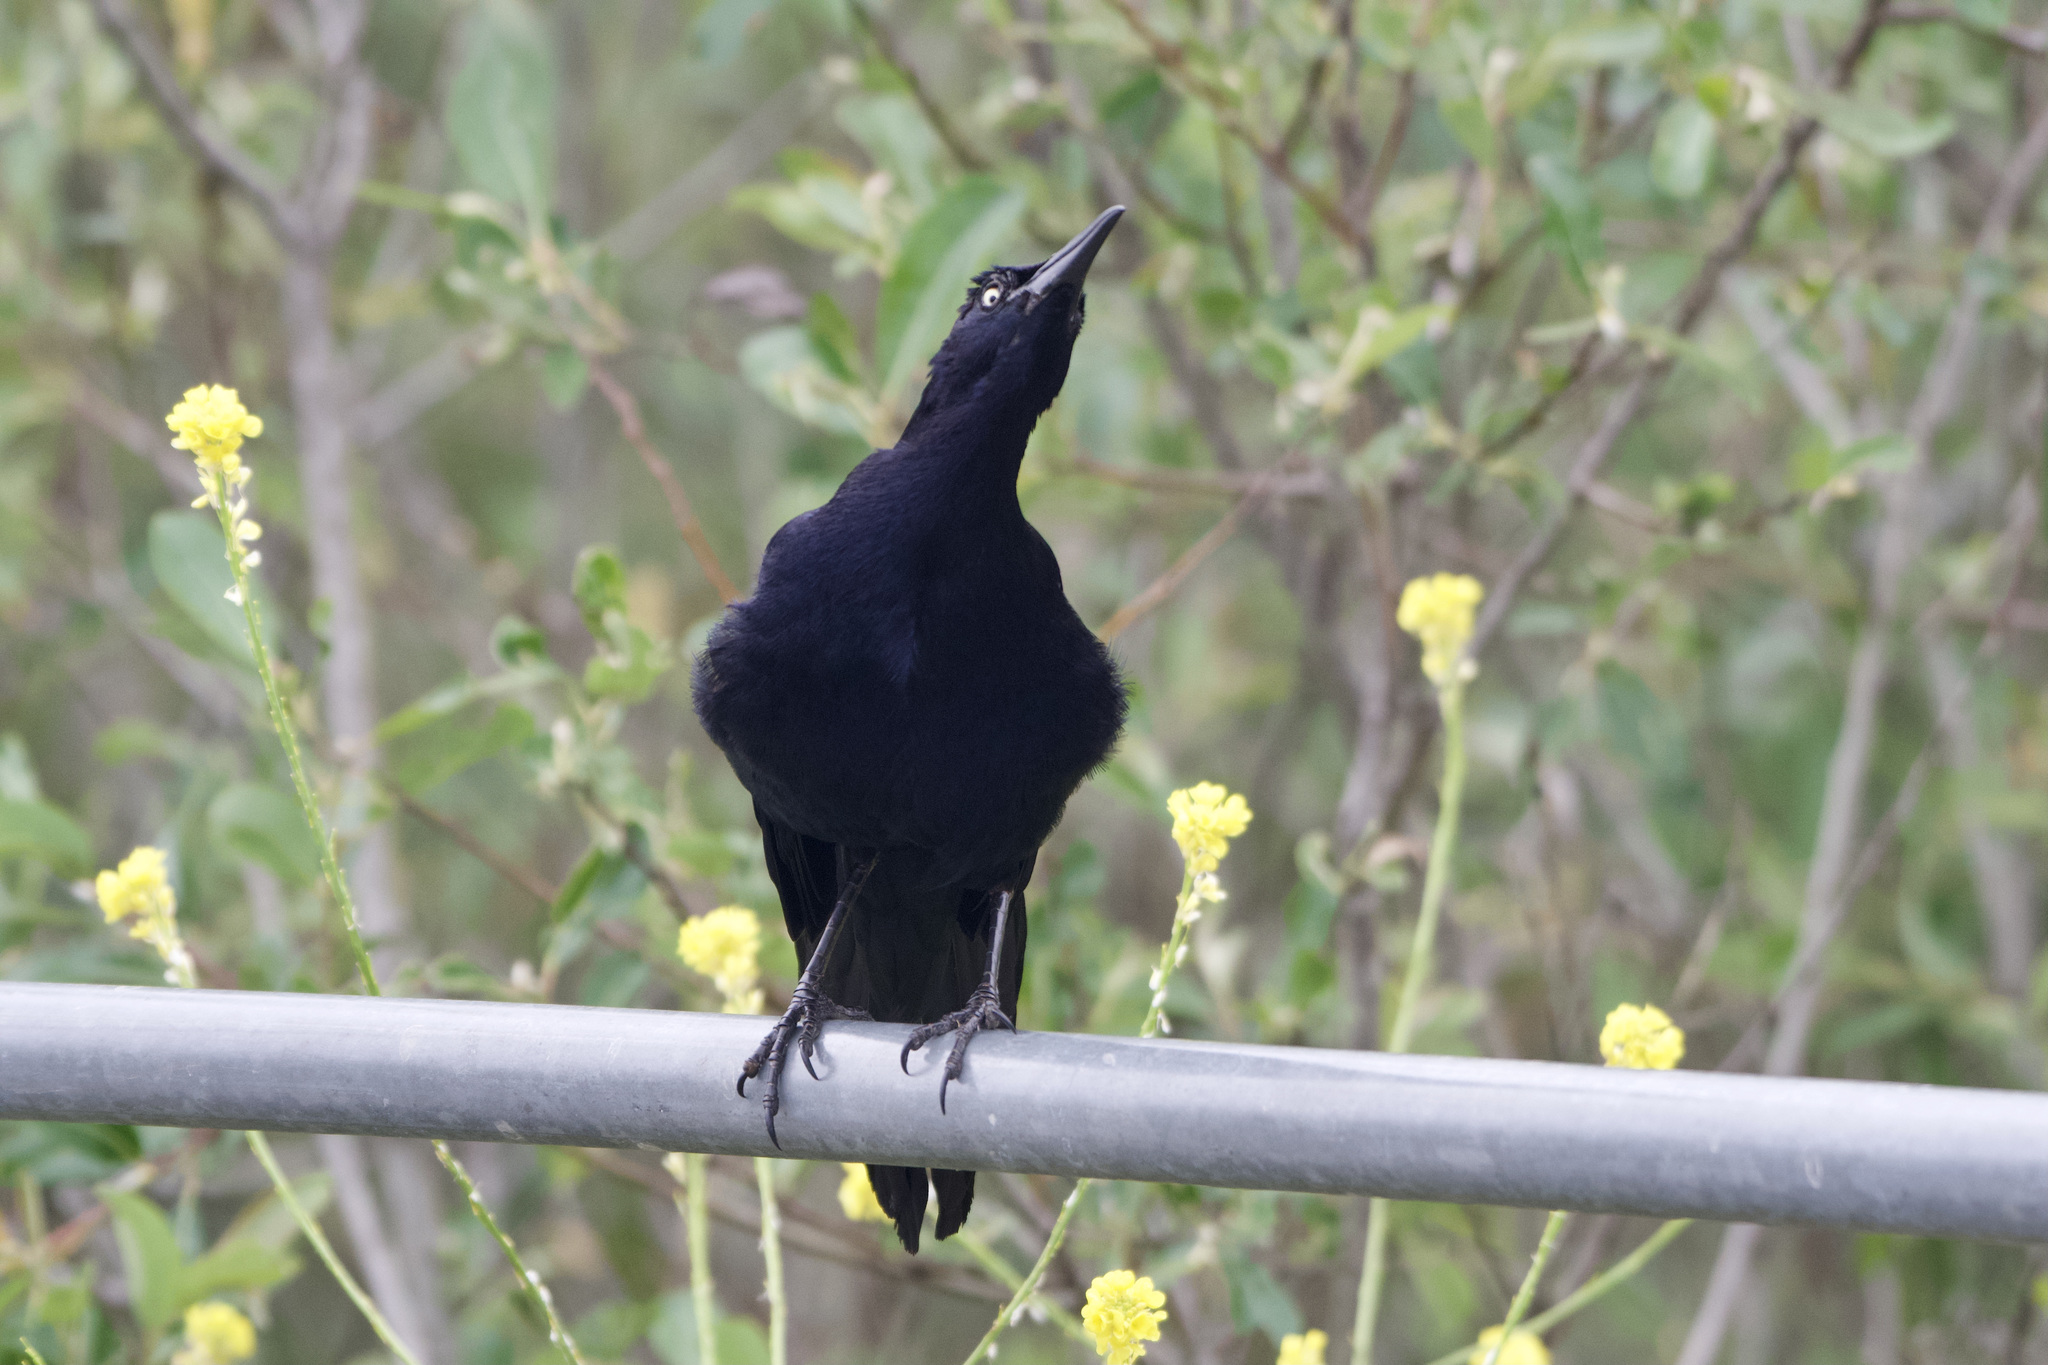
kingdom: Animalia
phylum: Chordata
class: Aves
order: Passeriformes
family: Icteridae
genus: Quiscalus
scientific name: Quiscalus mexicanus
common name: Great-tailed grackle
